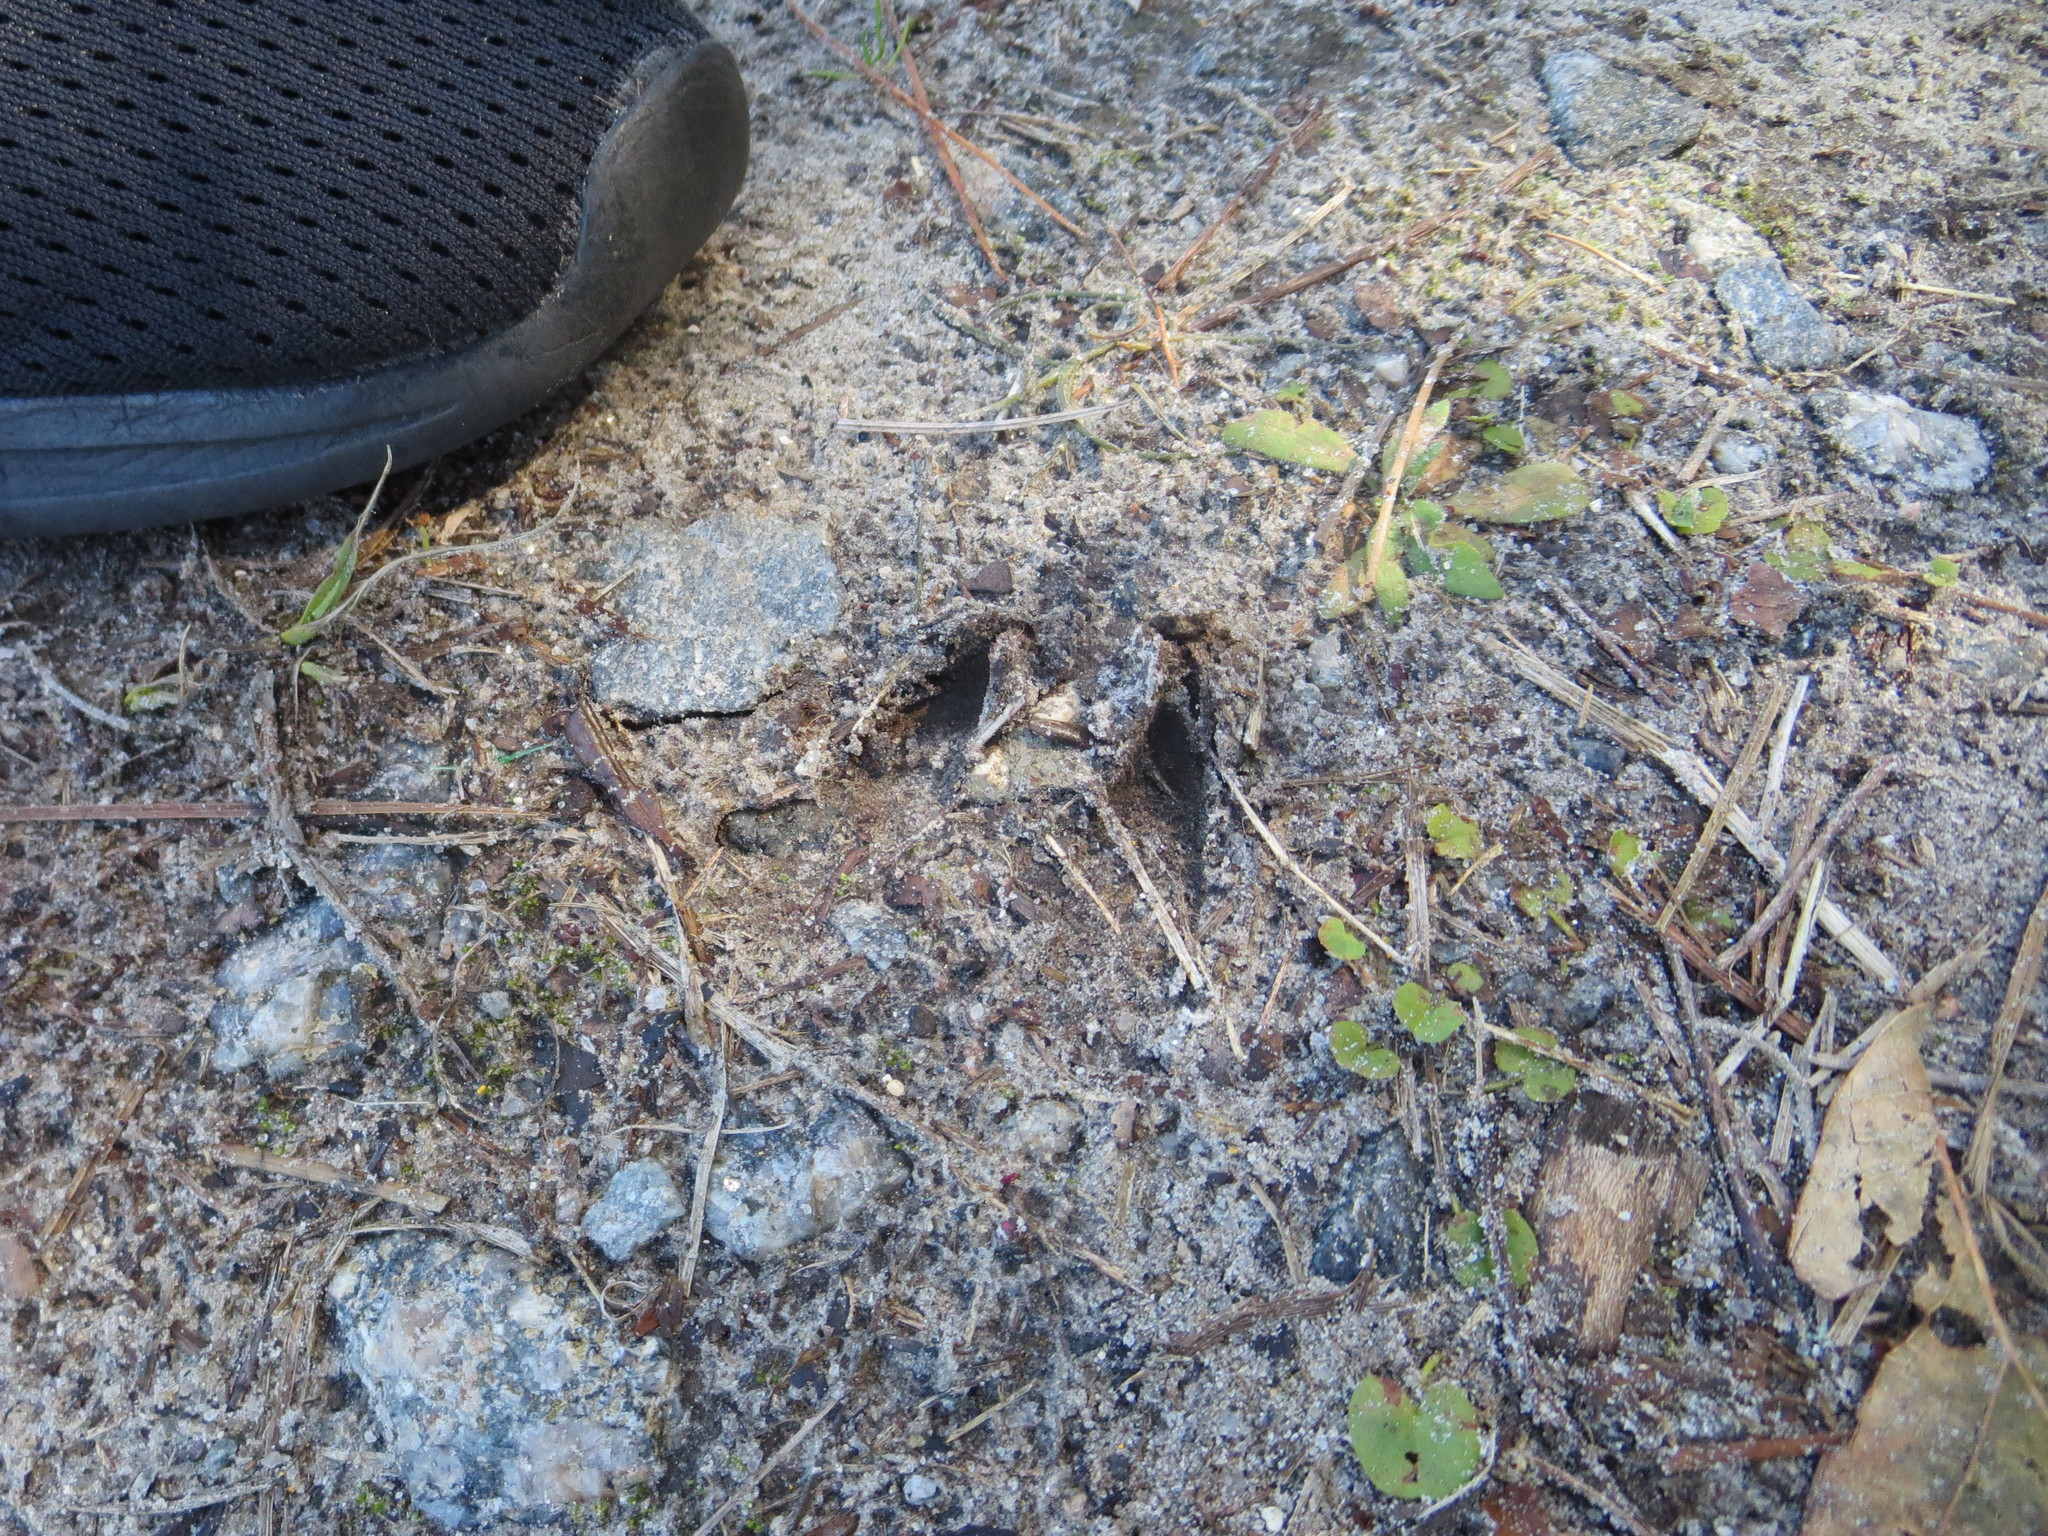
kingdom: Animalia
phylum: Chordata
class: Mammalia
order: Artiodactyla
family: Cervidae
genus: Odocoileus
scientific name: Odocoileus virginianus
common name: White-tailed deer
